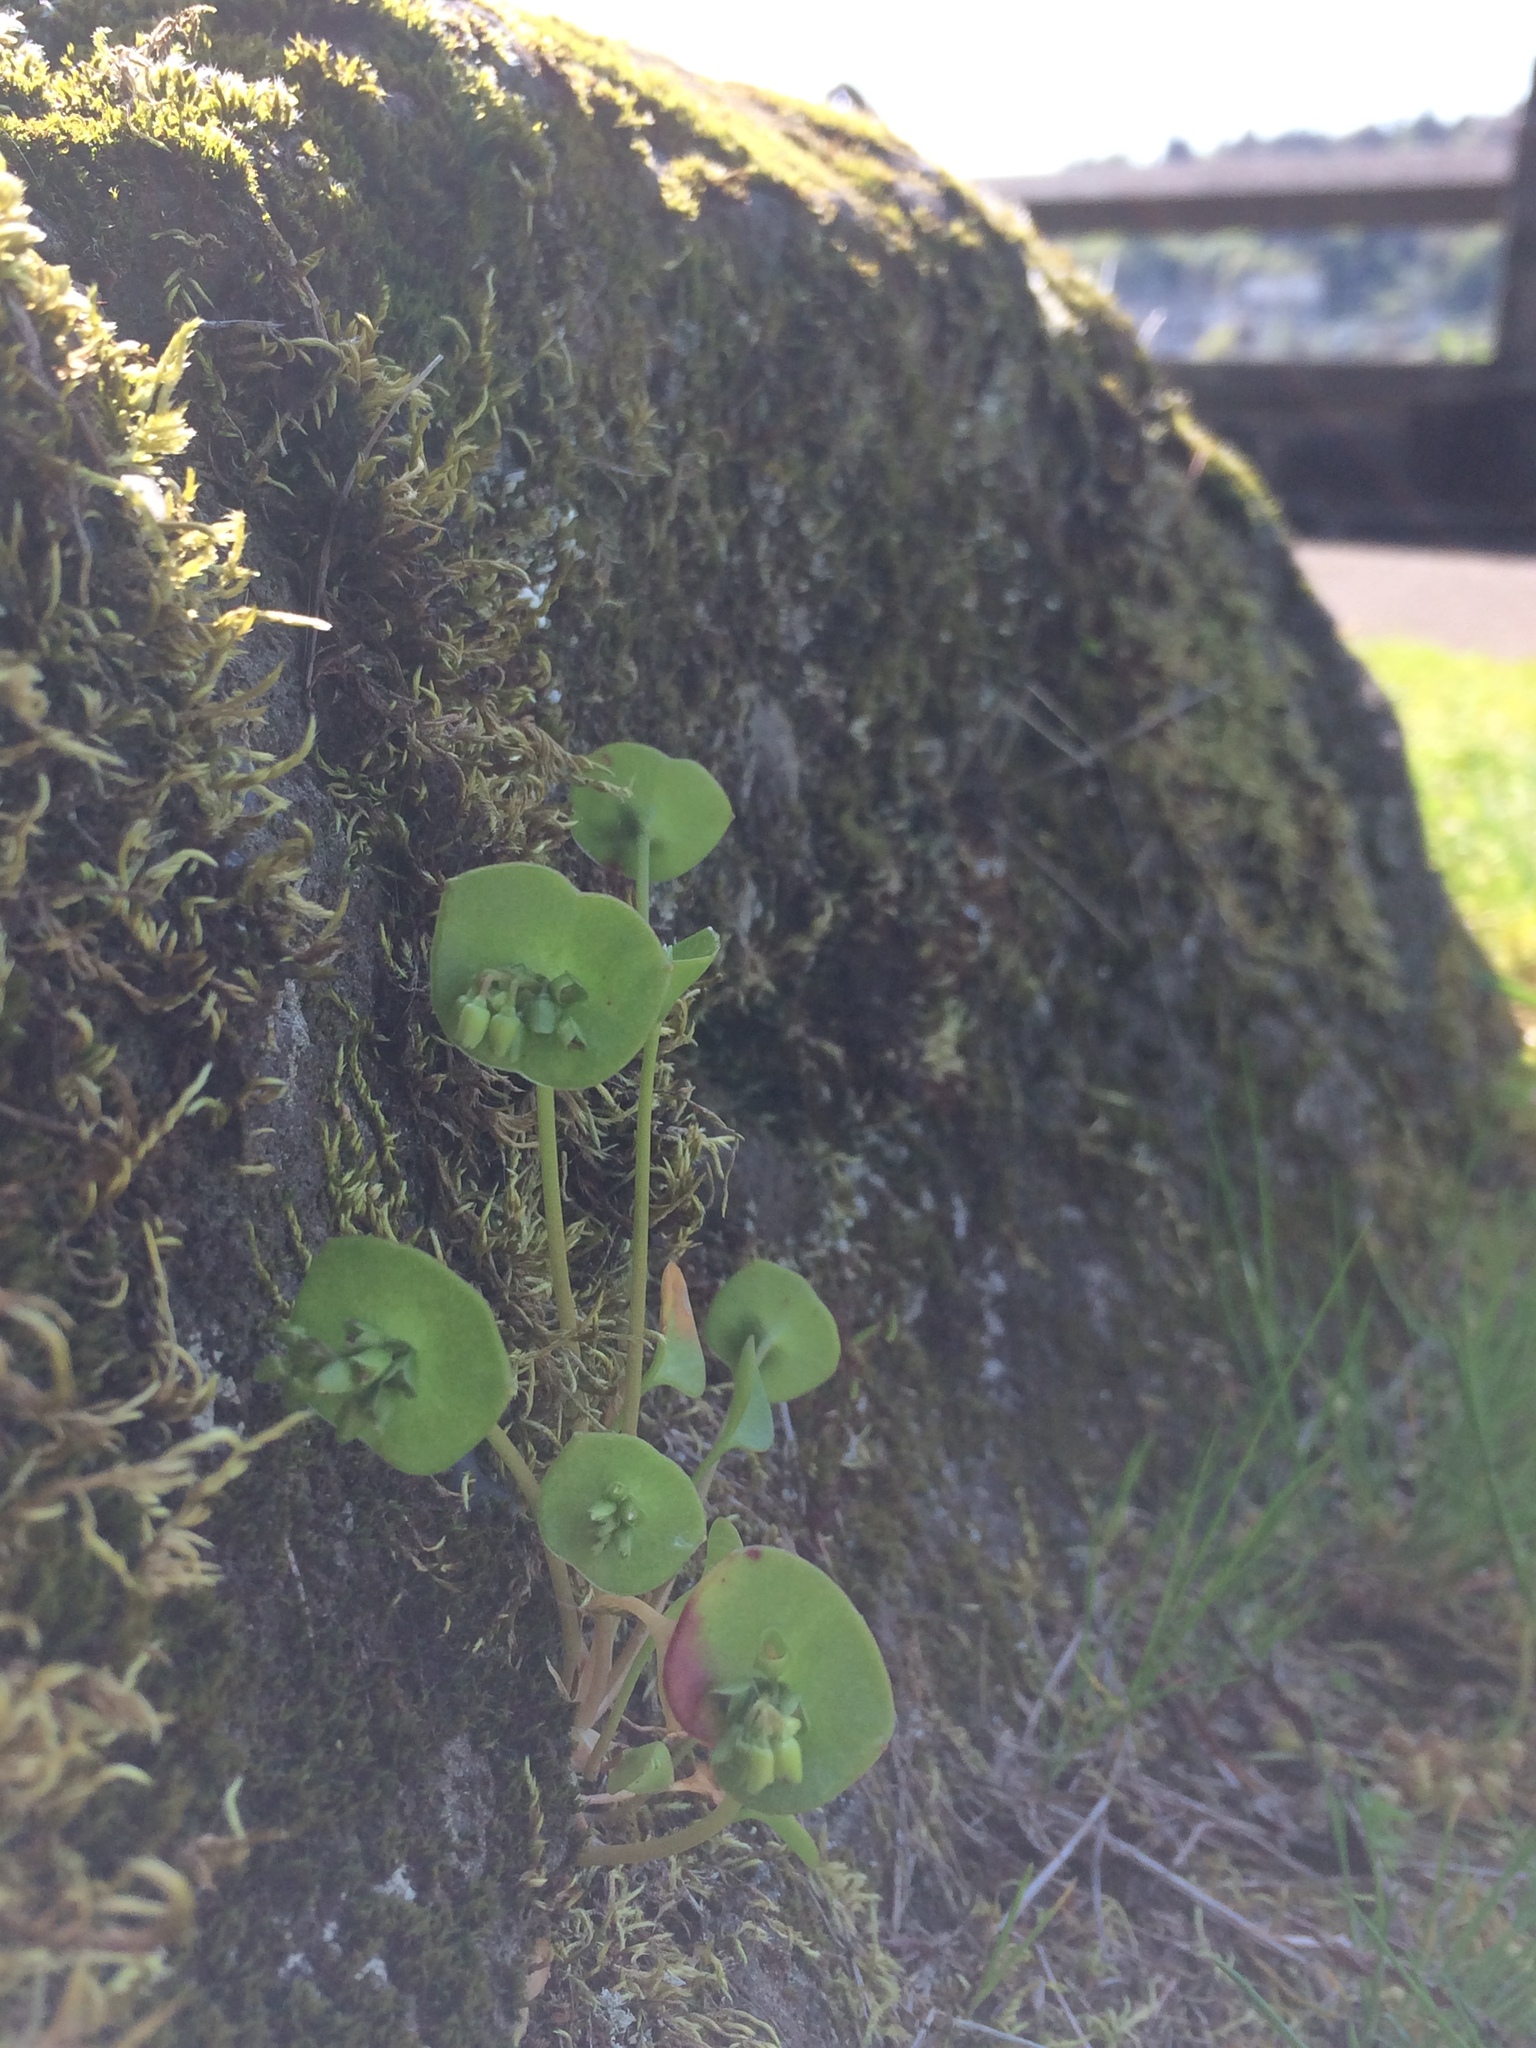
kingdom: Plantae
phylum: Tracheophyta
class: Magnoliopsida
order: Caryophyllales
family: Montiaceae
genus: Claytonia
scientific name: Claytonia perfoliata
